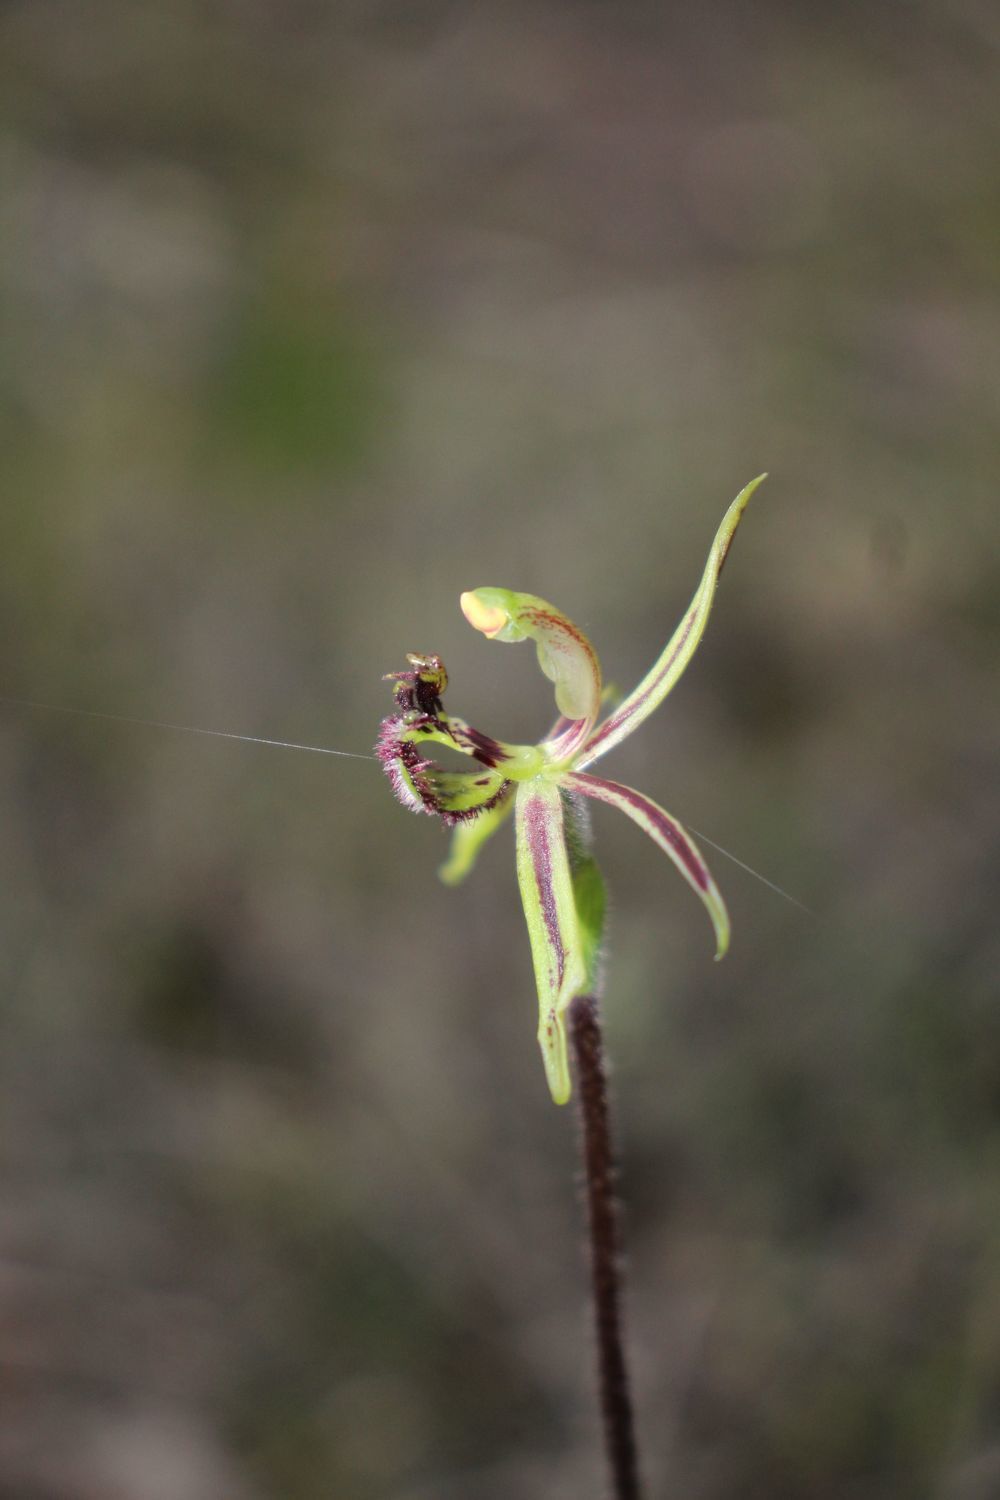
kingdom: Plantae
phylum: Tracheophyta
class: Liliopsida
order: Asparagales
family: Orchidaceae
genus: Caladenia
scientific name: Caladenia barbarossa
